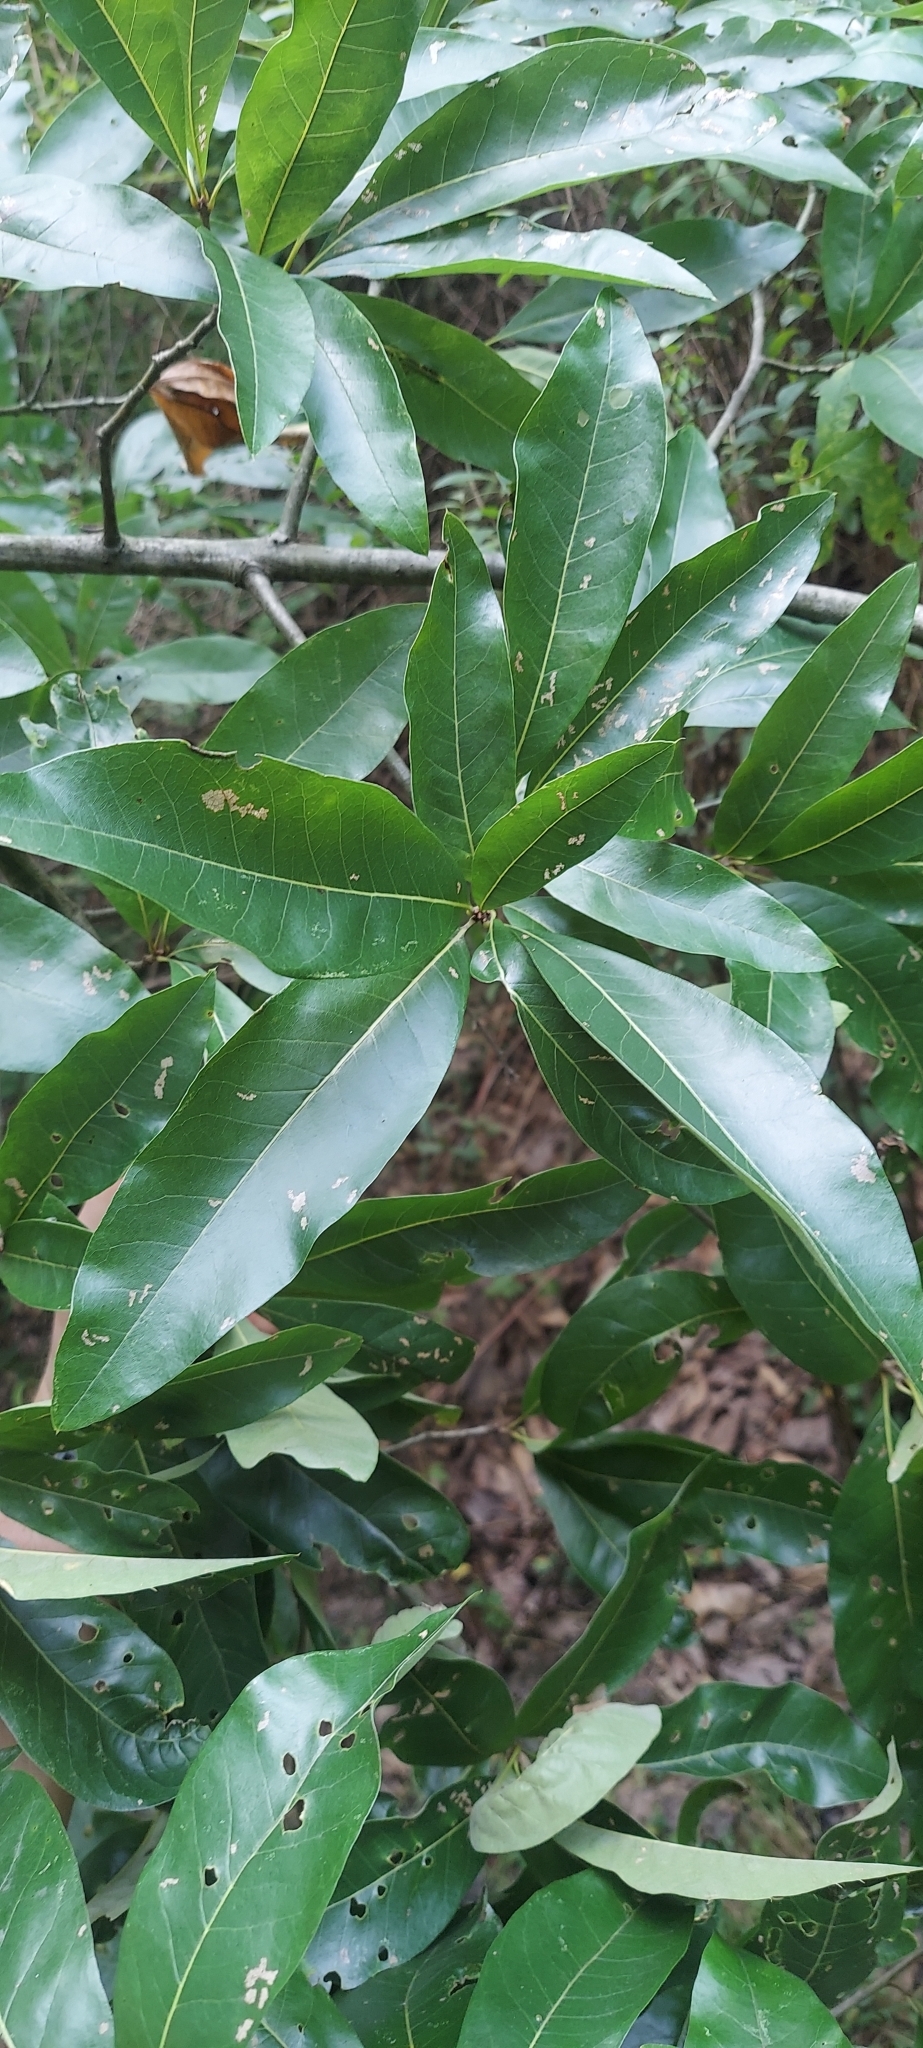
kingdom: Plantae
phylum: Tracheophyta
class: Magnoliopsida
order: Fagales
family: Fagaceae
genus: Quercus
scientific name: Quercus imbricaria
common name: Shingle oak
